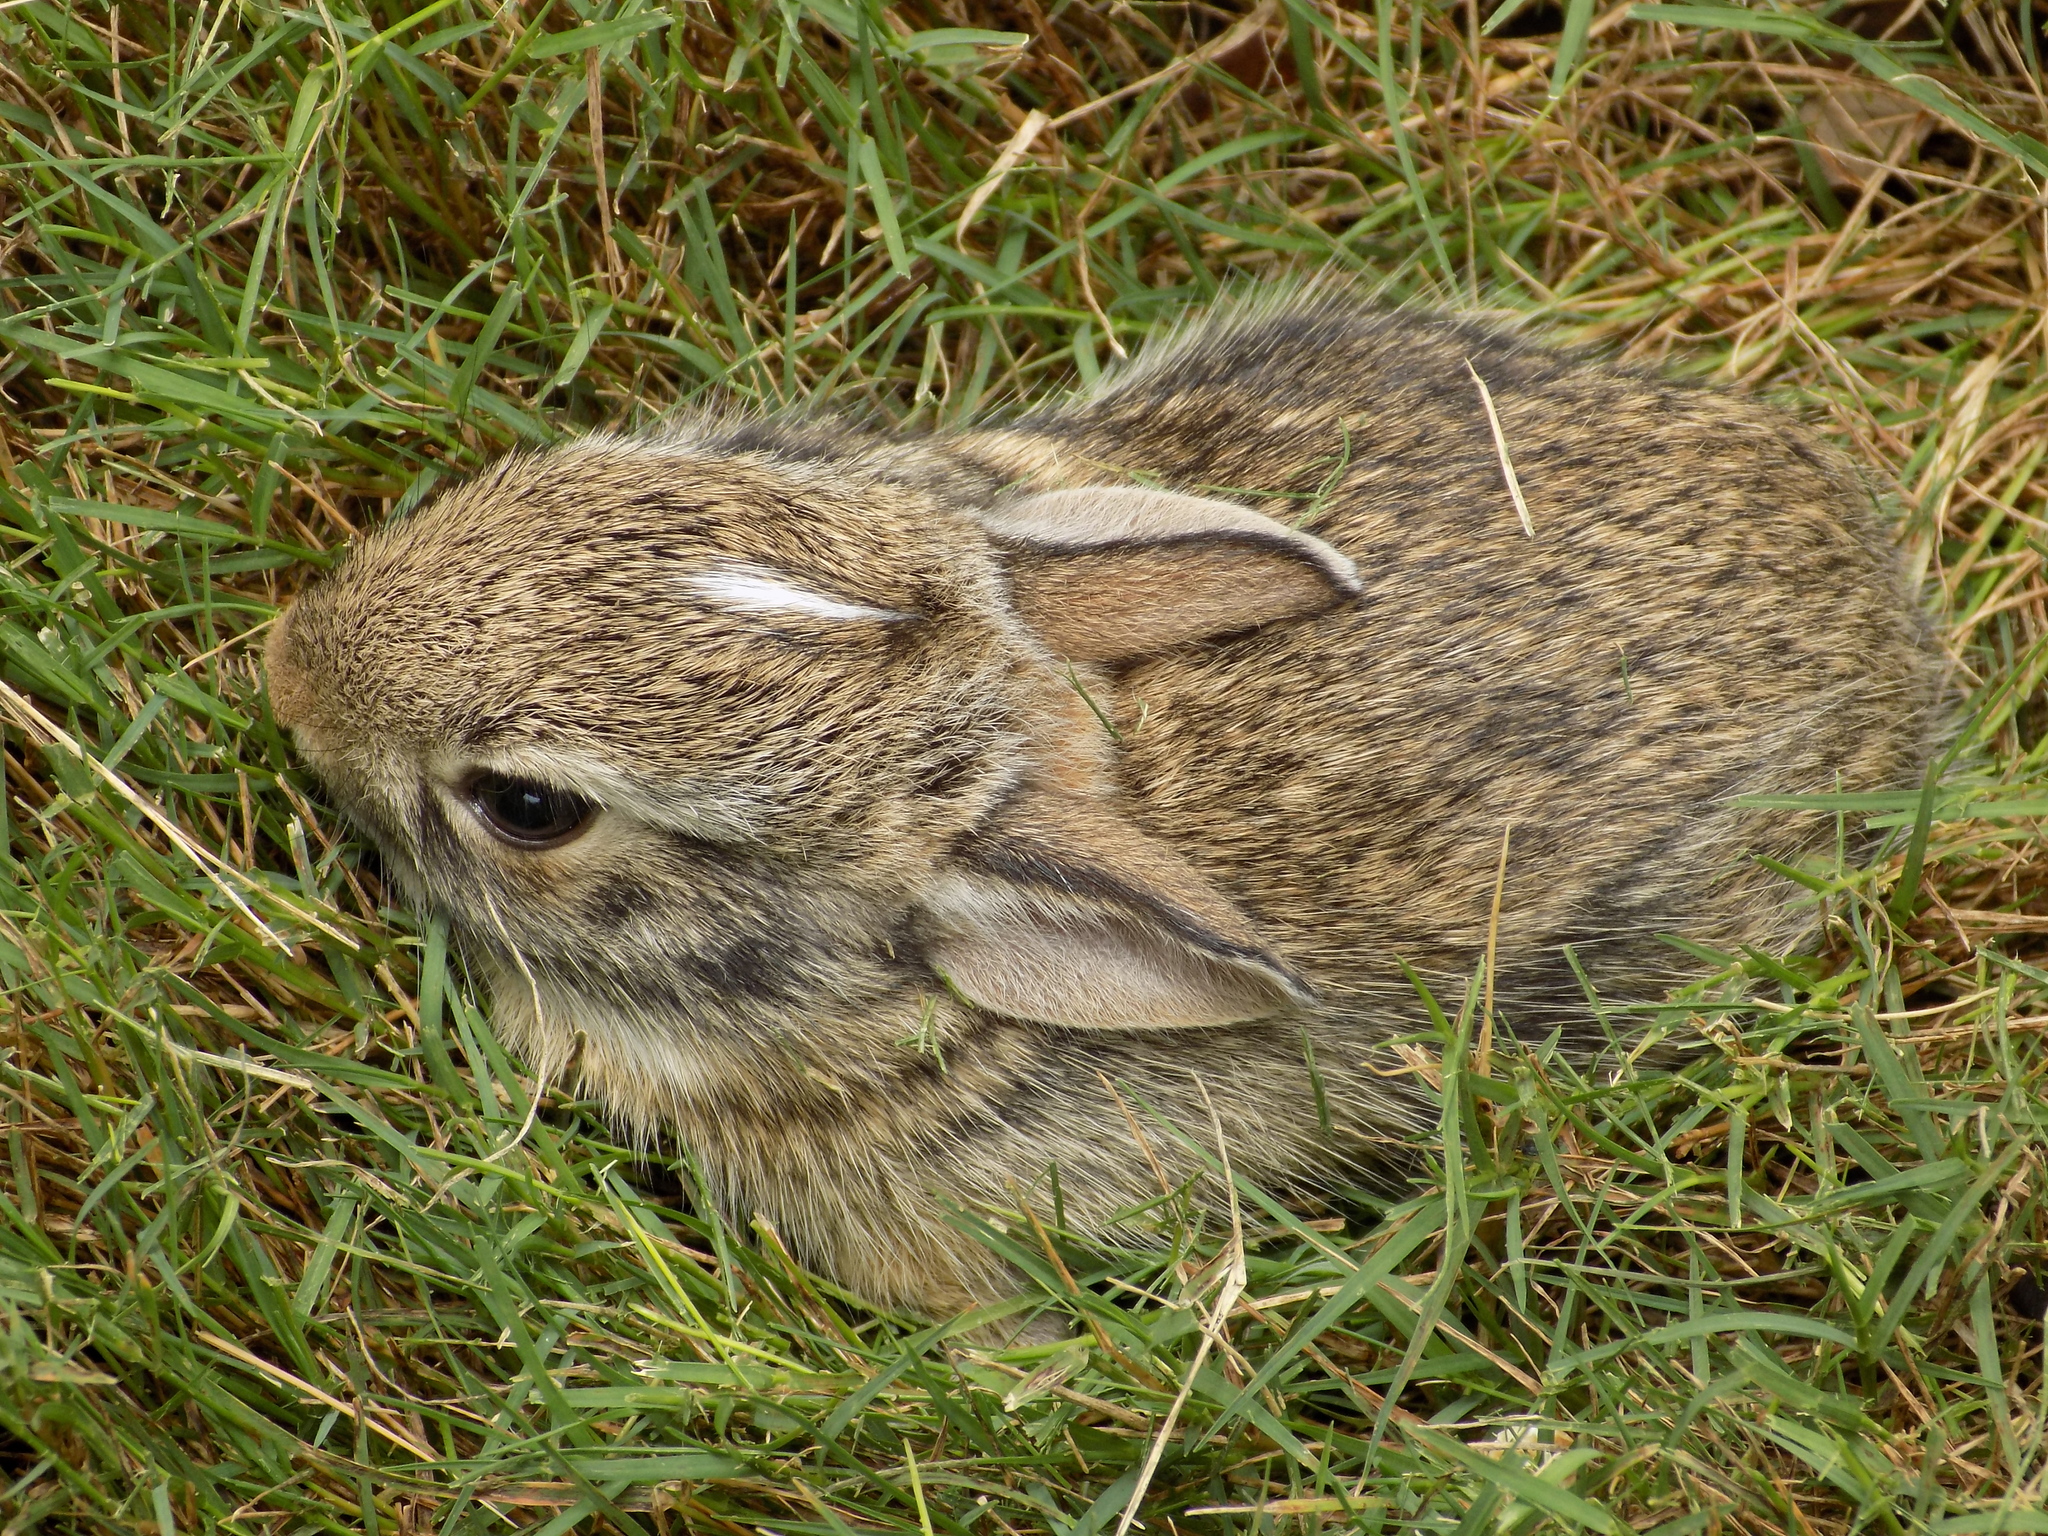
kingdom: Animalia
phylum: Chordata
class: Mammalia
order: Lagomorpha
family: Leporidae
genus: Sylvilagus
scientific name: Sylvilagus floridanus
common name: Eastern cottontail
